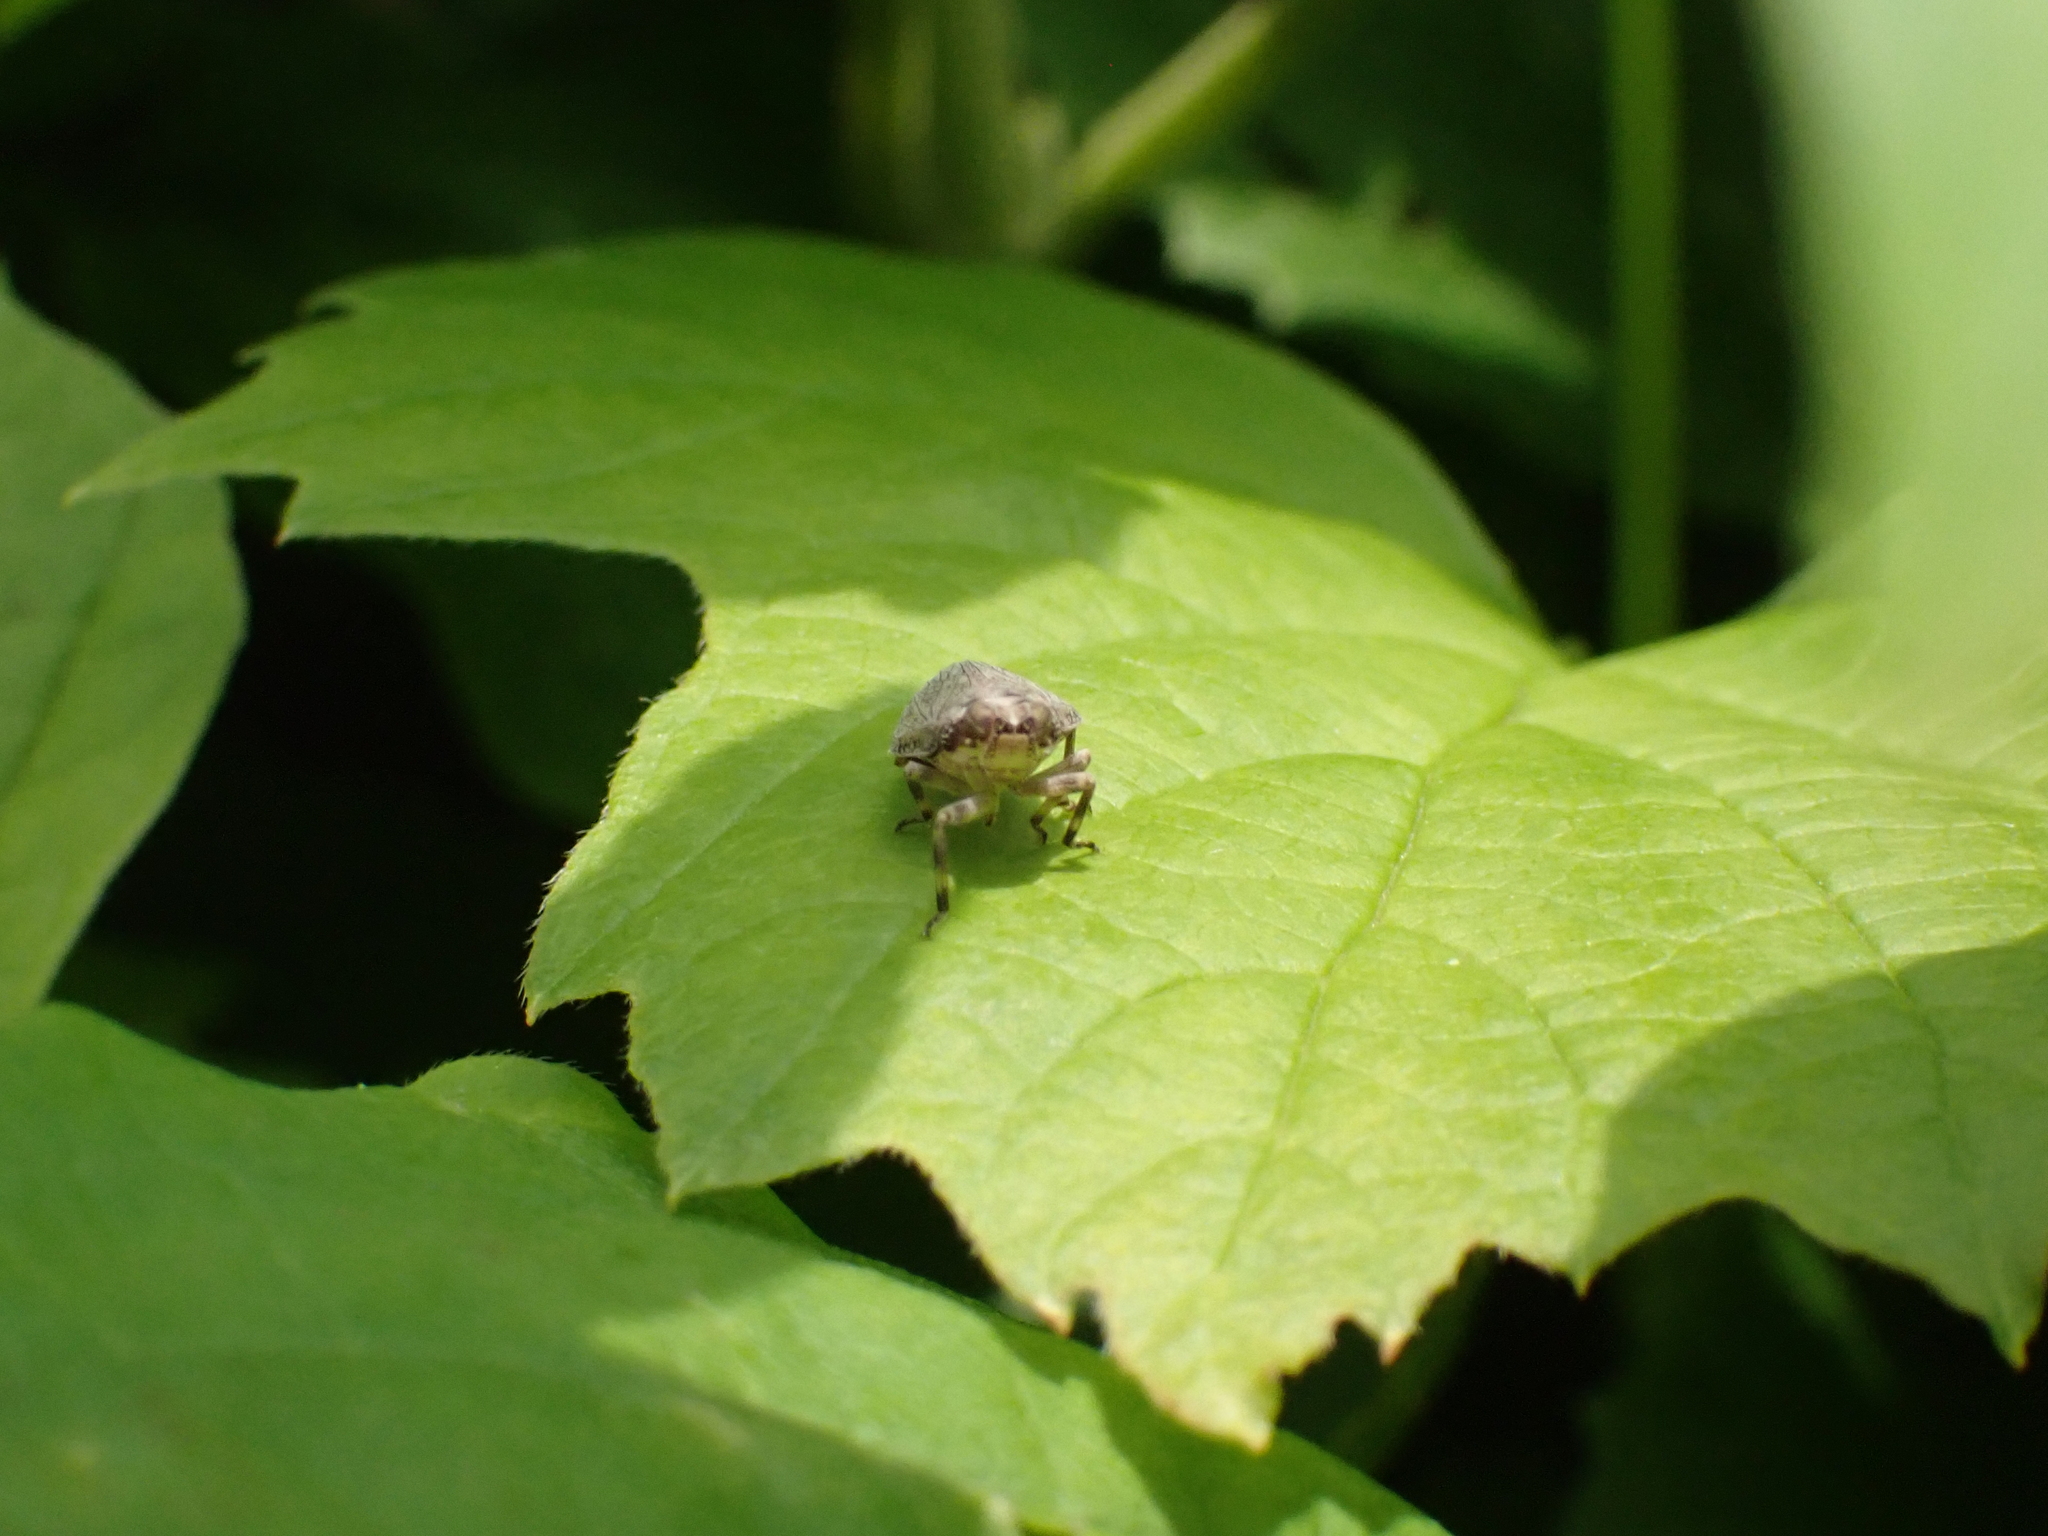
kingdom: Animalia
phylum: Arthropoda
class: Insecta
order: Hemiptera
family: Issidae
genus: Issus
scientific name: Issus coleoptratus
